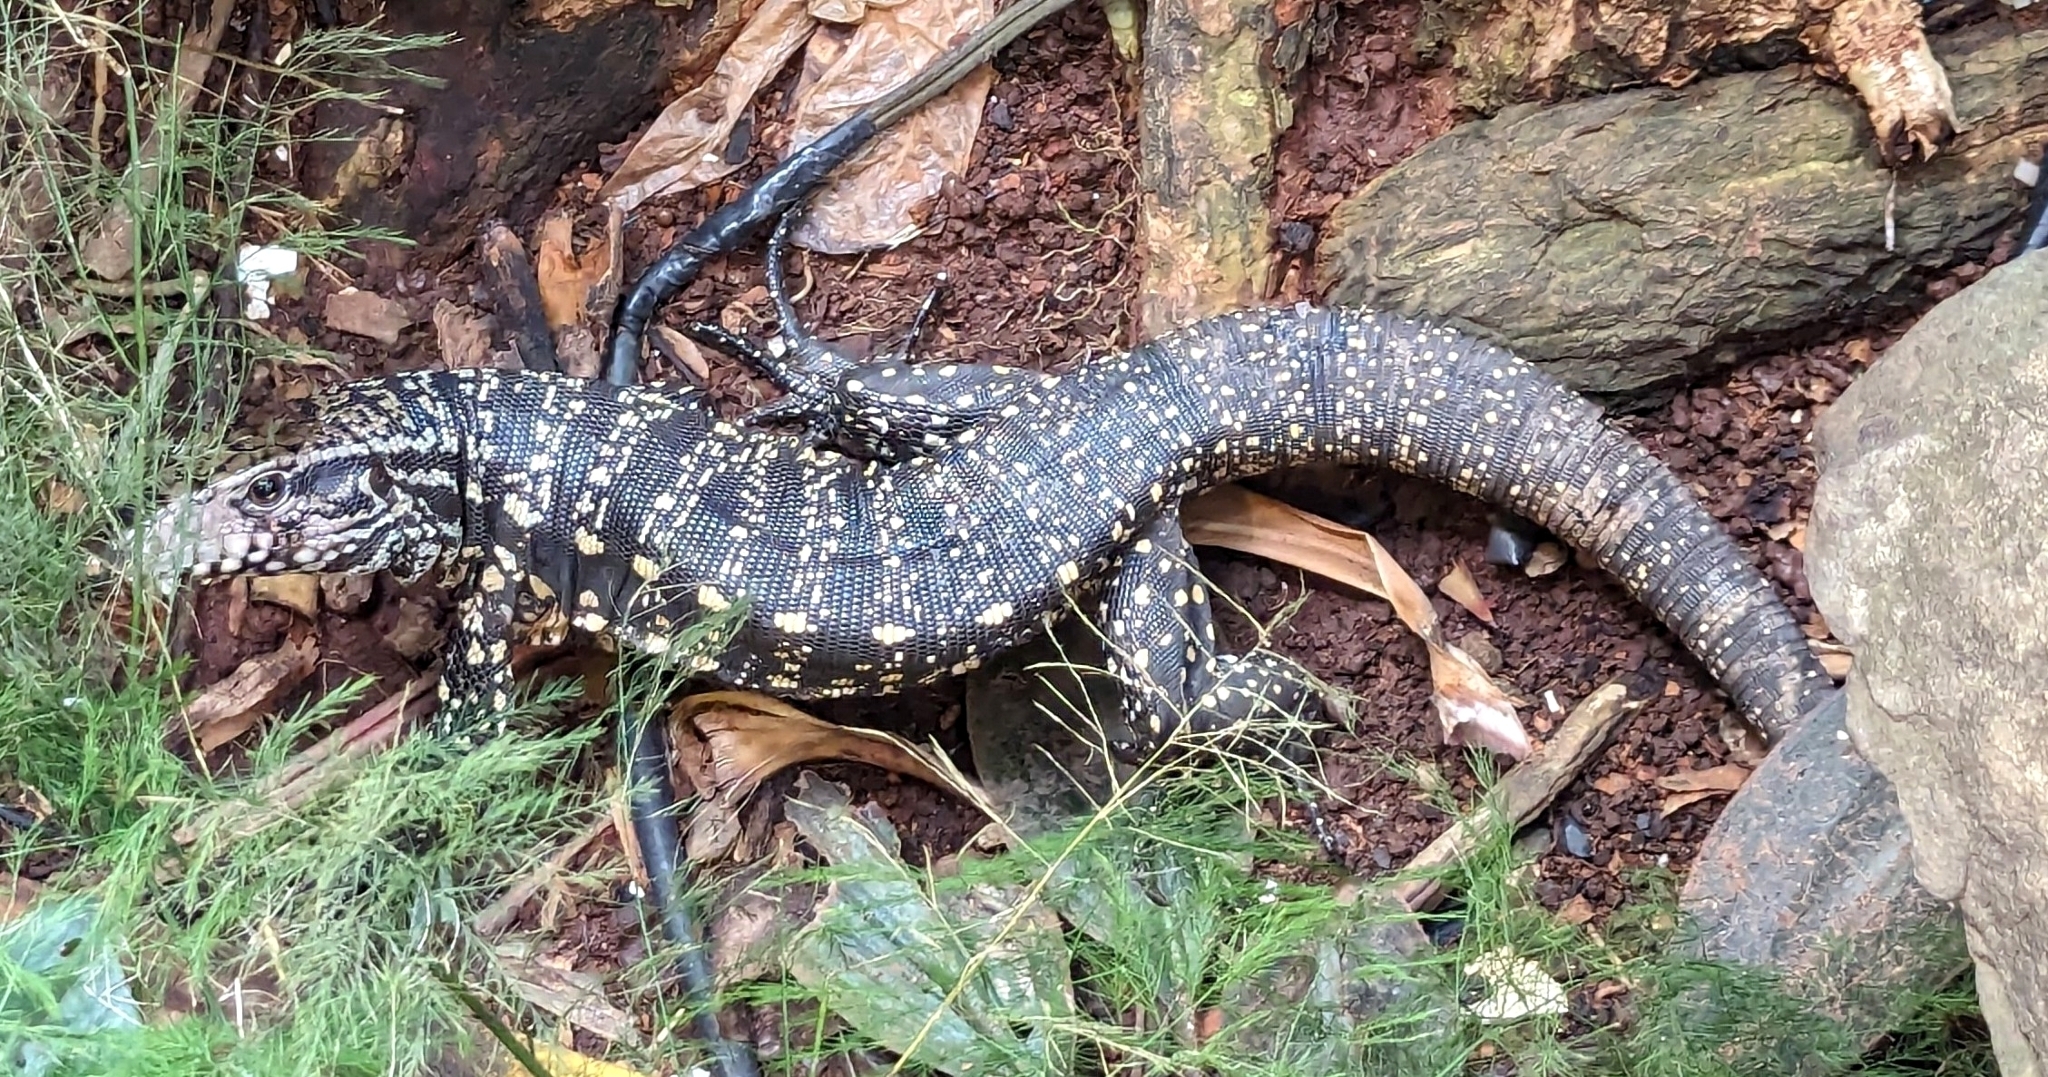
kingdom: Animalia
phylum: Chordata
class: Squamata
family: Teiidae
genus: Salvator
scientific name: Salvator merianae
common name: Argentine black and white tegu
